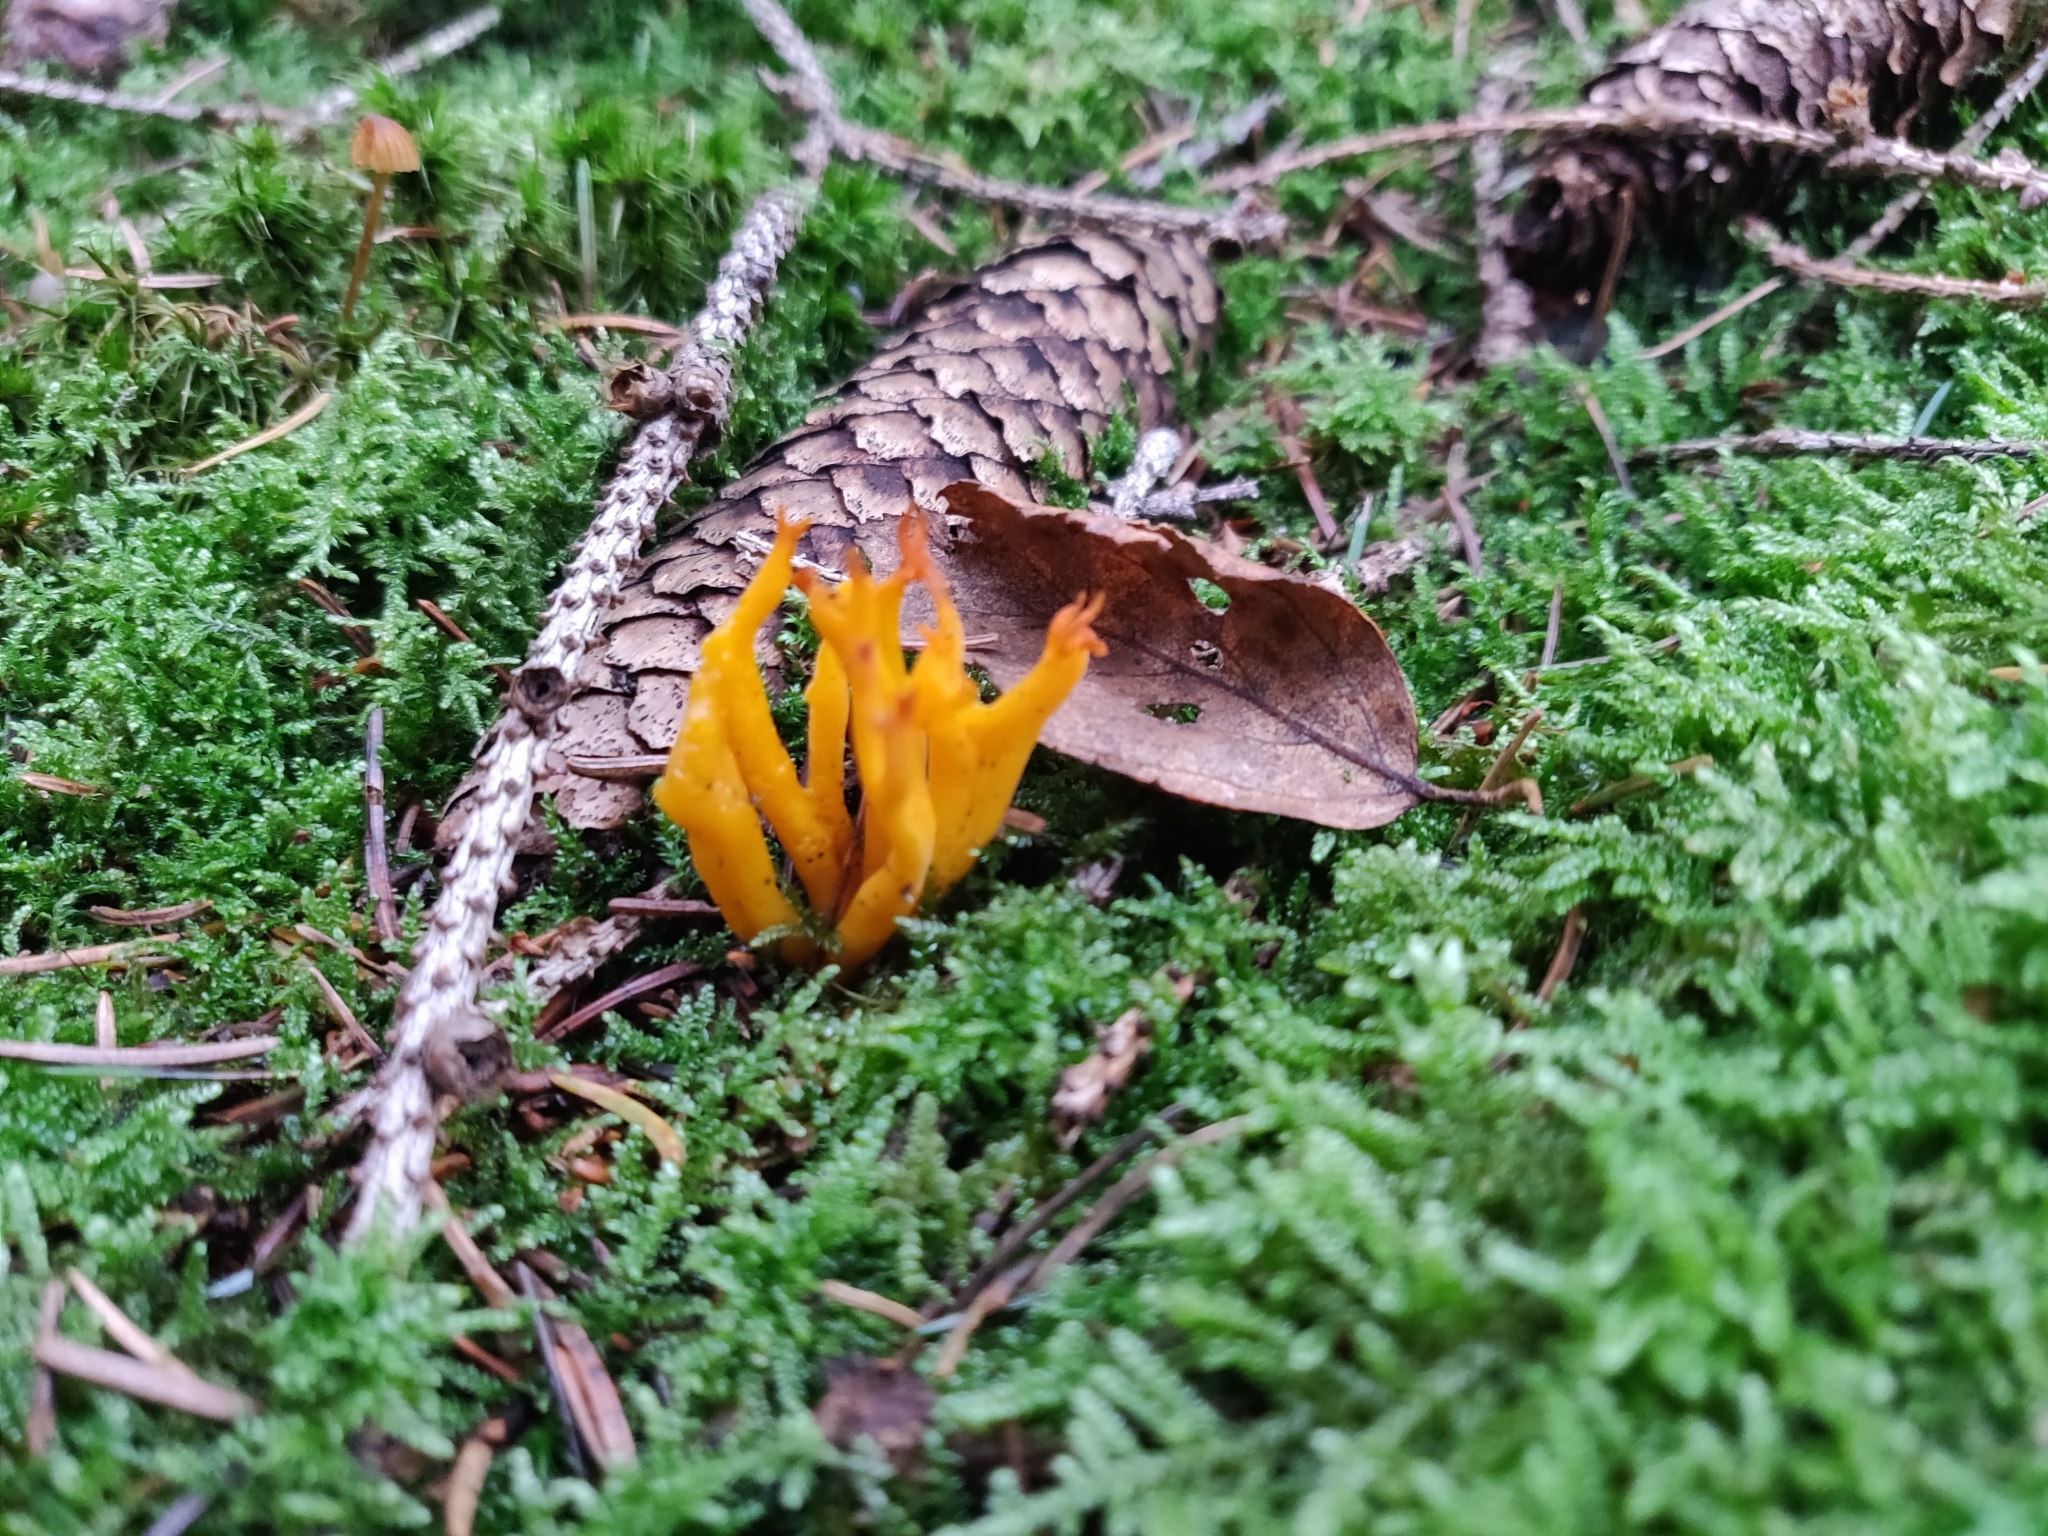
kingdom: Fungi
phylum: Basidiomycota
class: Dacrymycetes
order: Dacrymycetales
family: Dacrymycetaceae
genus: Calocera
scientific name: Calocera viscosa
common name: Yellow stagshorn
